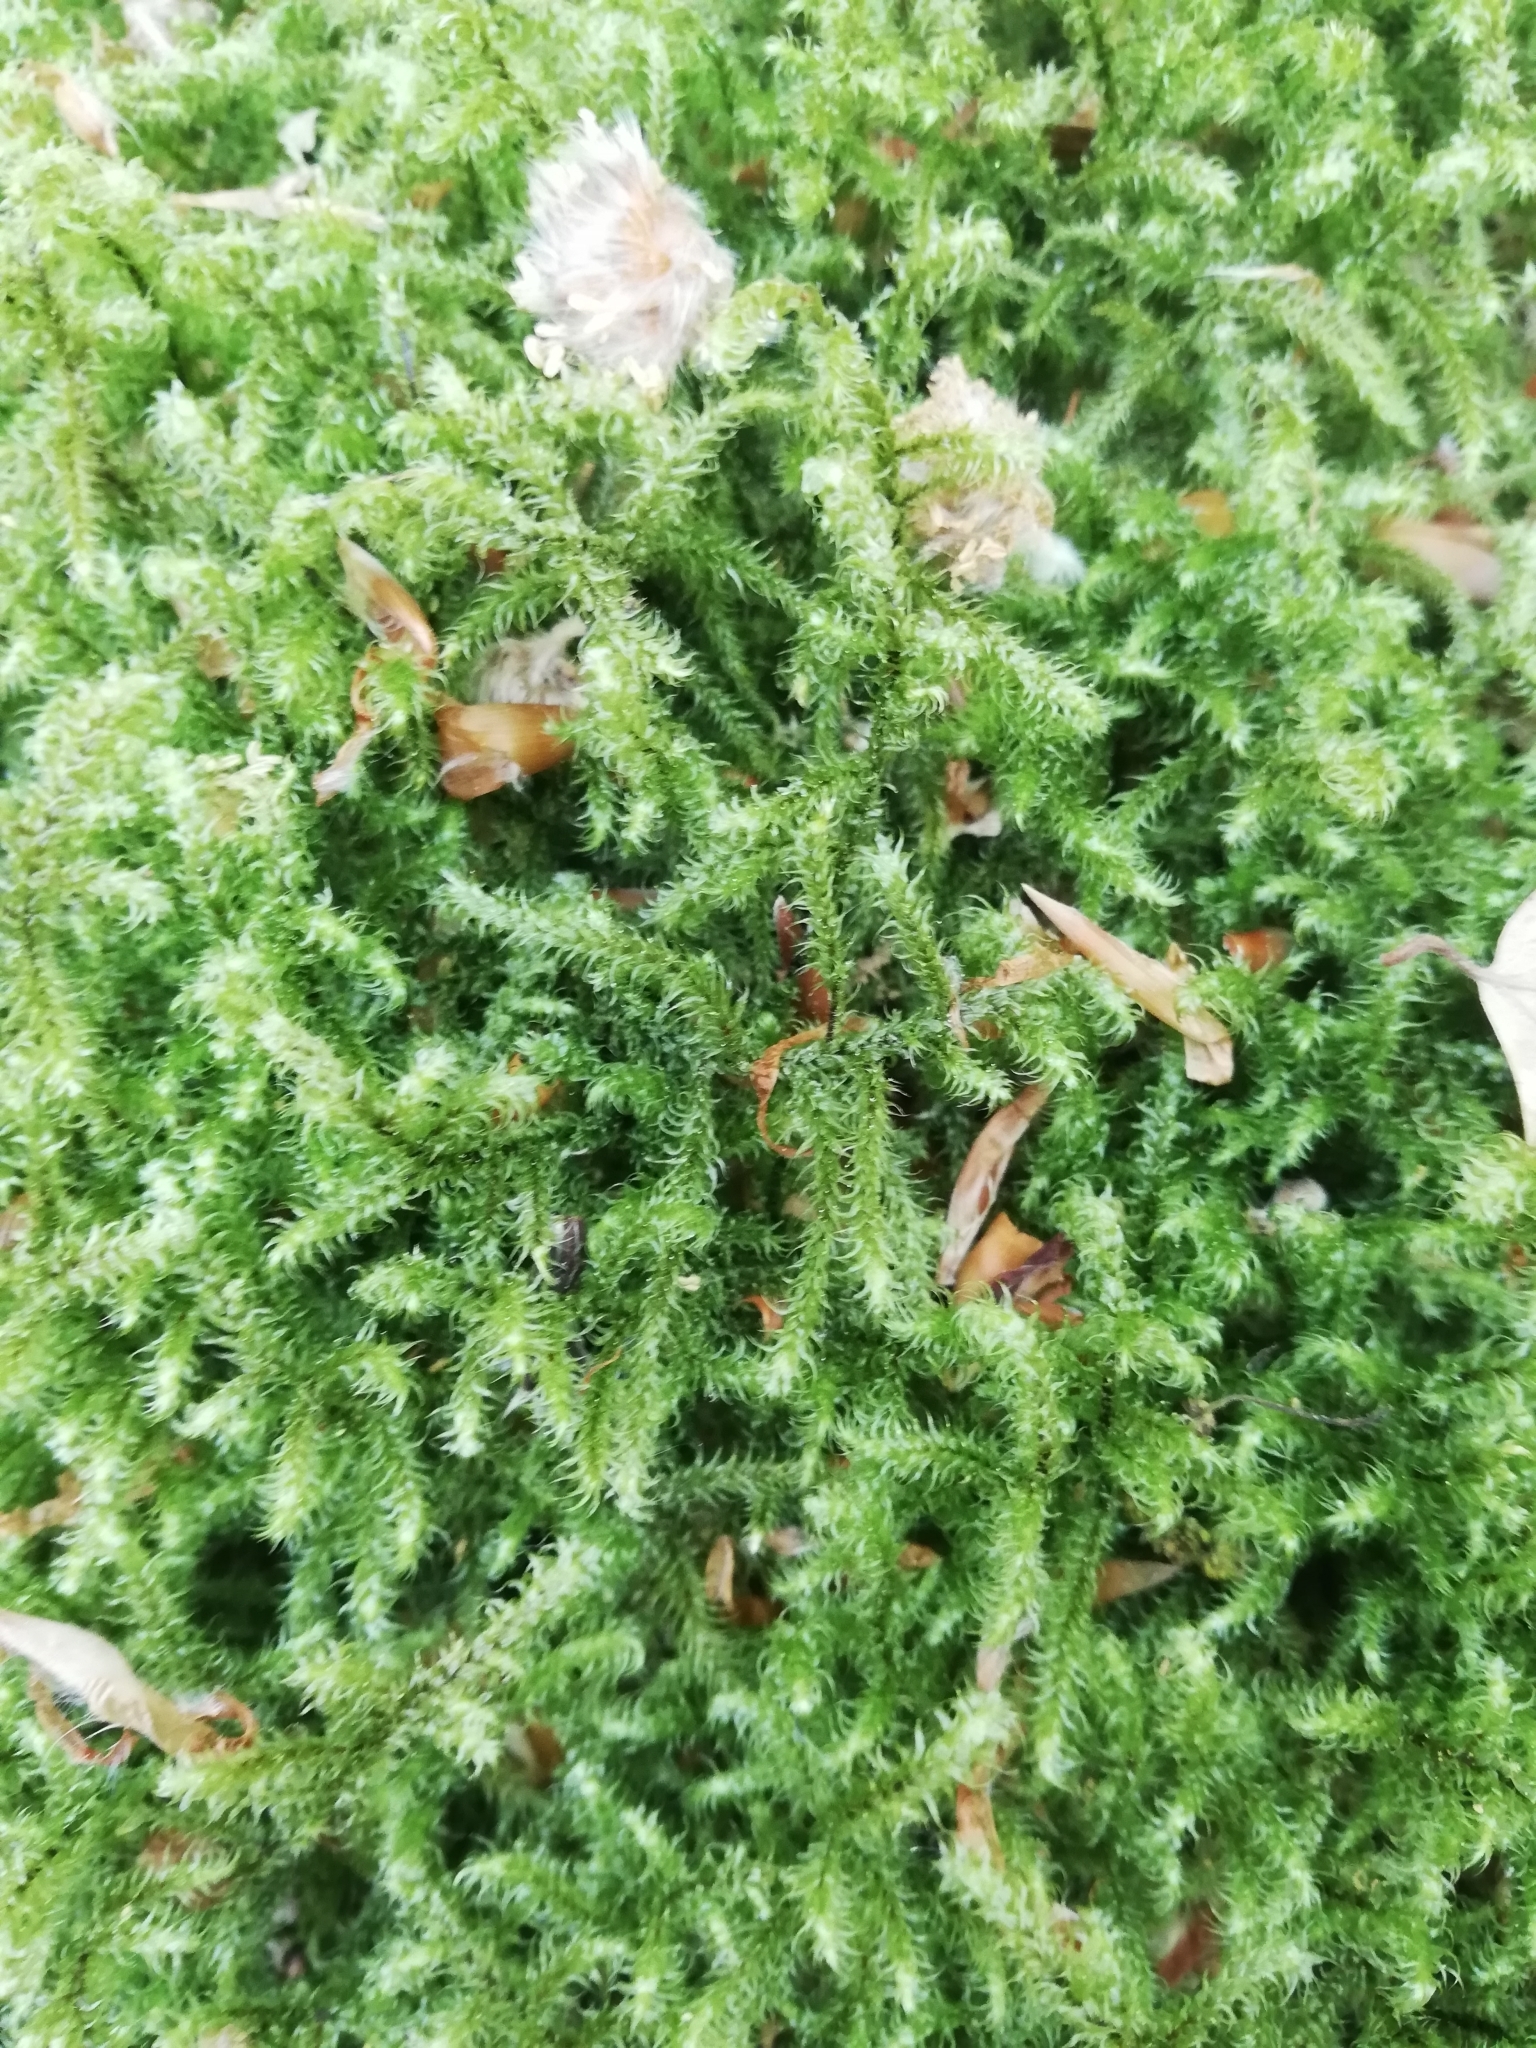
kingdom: Plantae
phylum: Bryophyta
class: Bryopsida
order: Hypnales
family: Hylocomiaceae
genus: Rhytidiadelphus
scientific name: Rhytidiadelphus loreus
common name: Lanky moss
